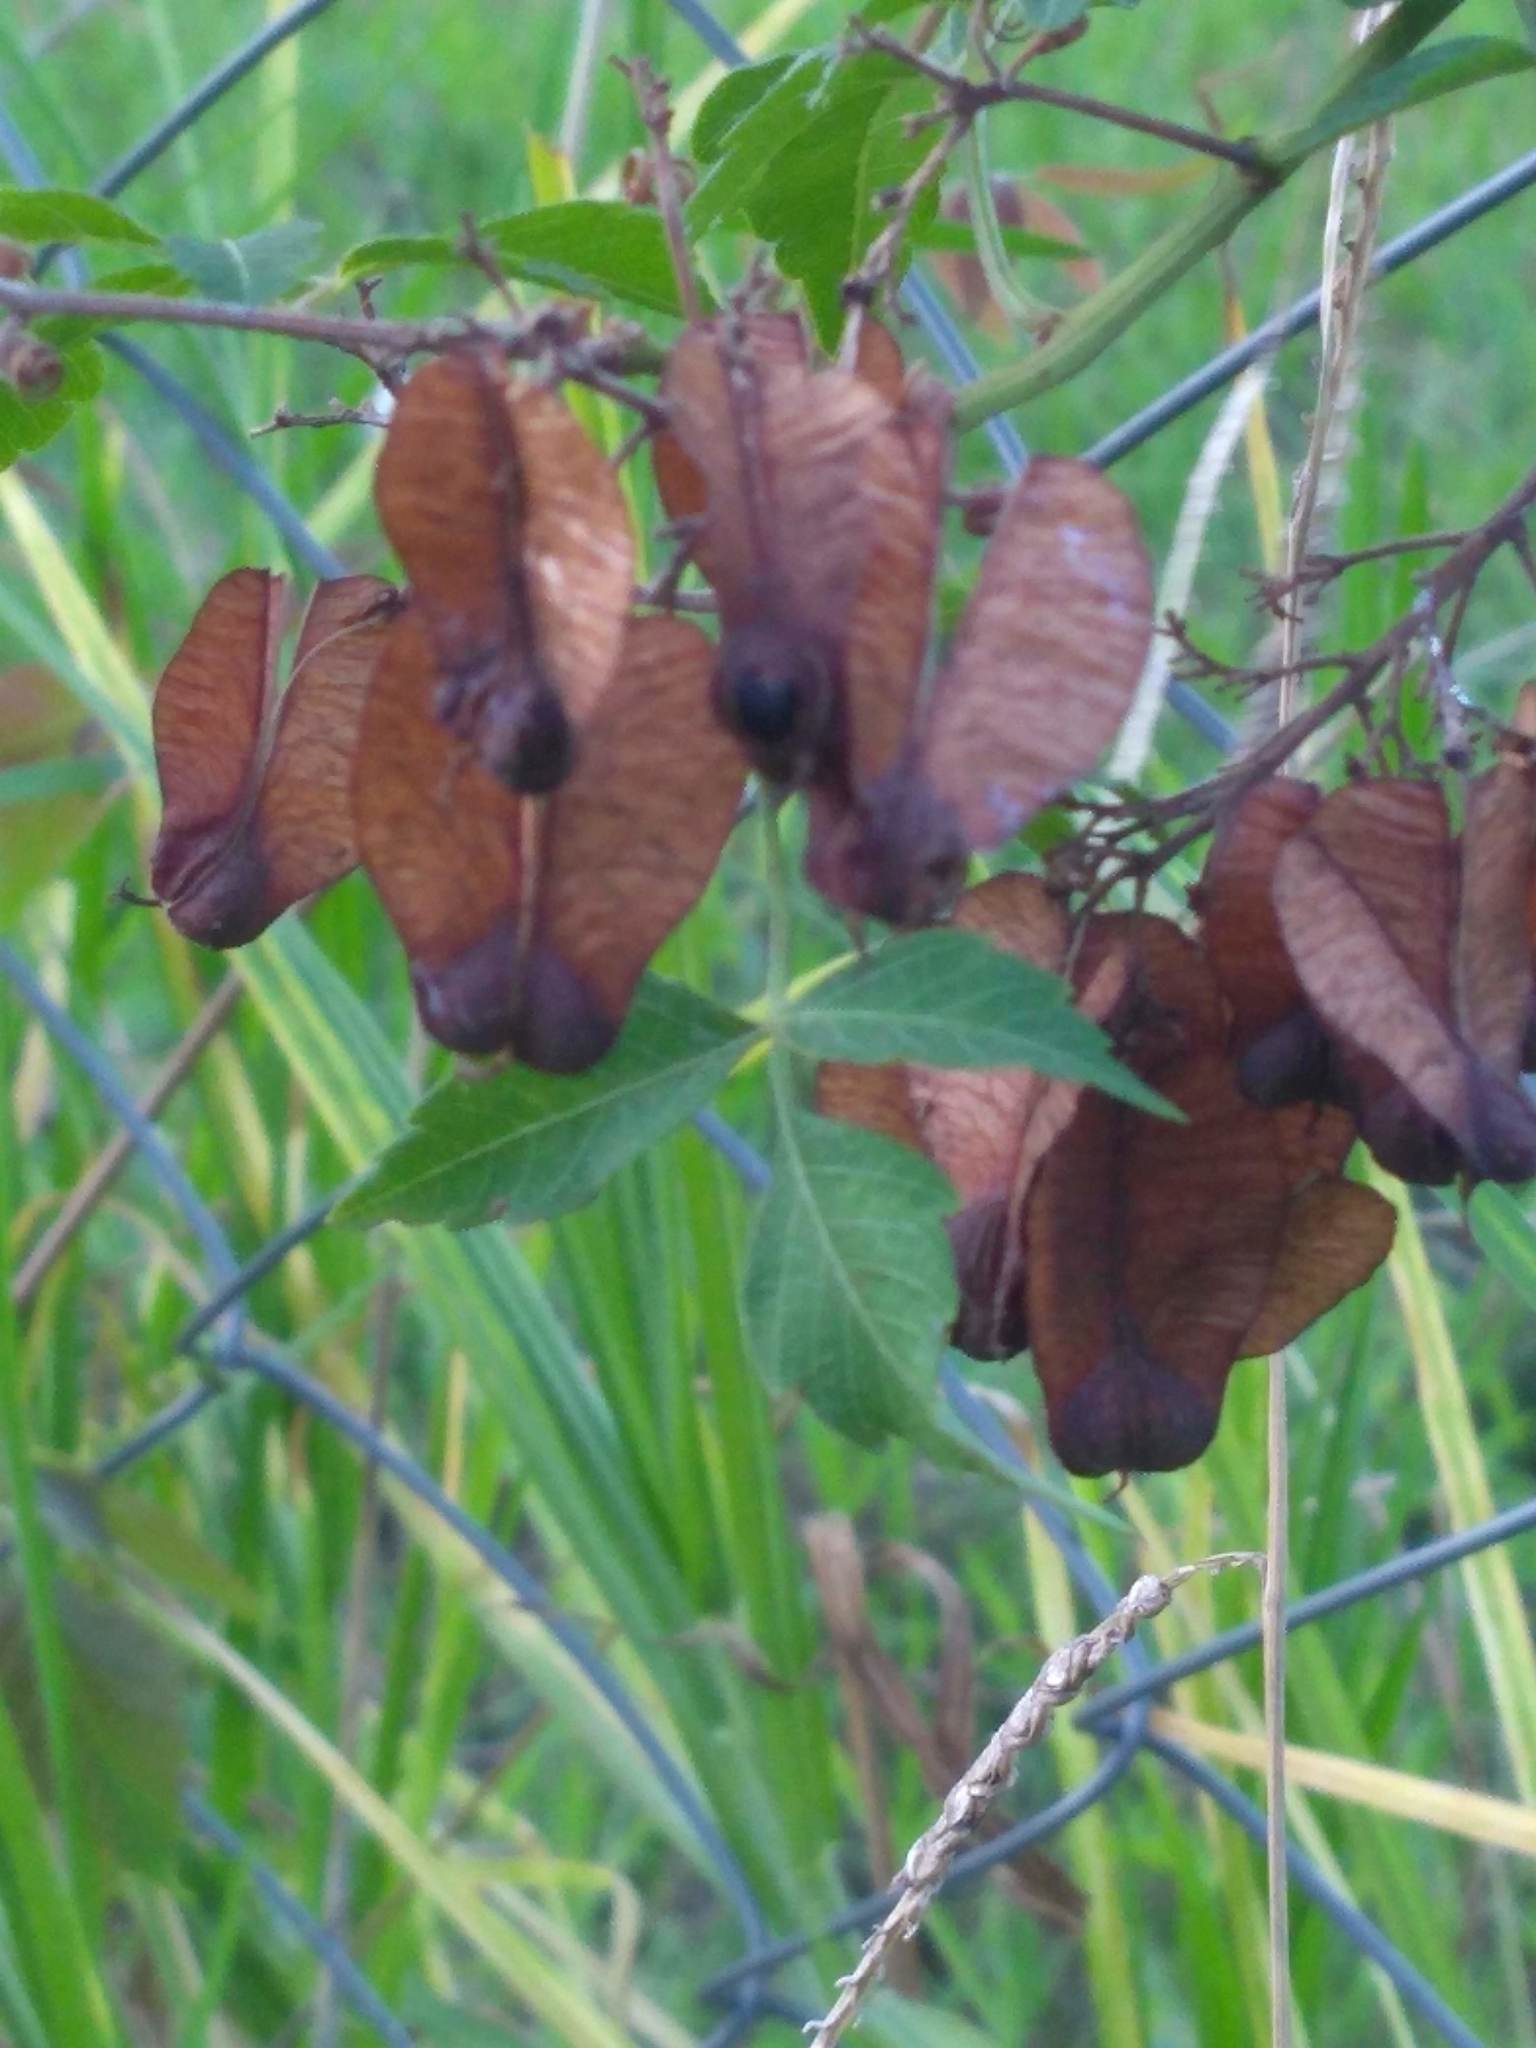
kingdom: Plantae
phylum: Tracheophyta
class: Magnoliopsida
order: Sapindales
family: Sapindaceae
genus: Serjania
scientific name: Serjania meridionalis
